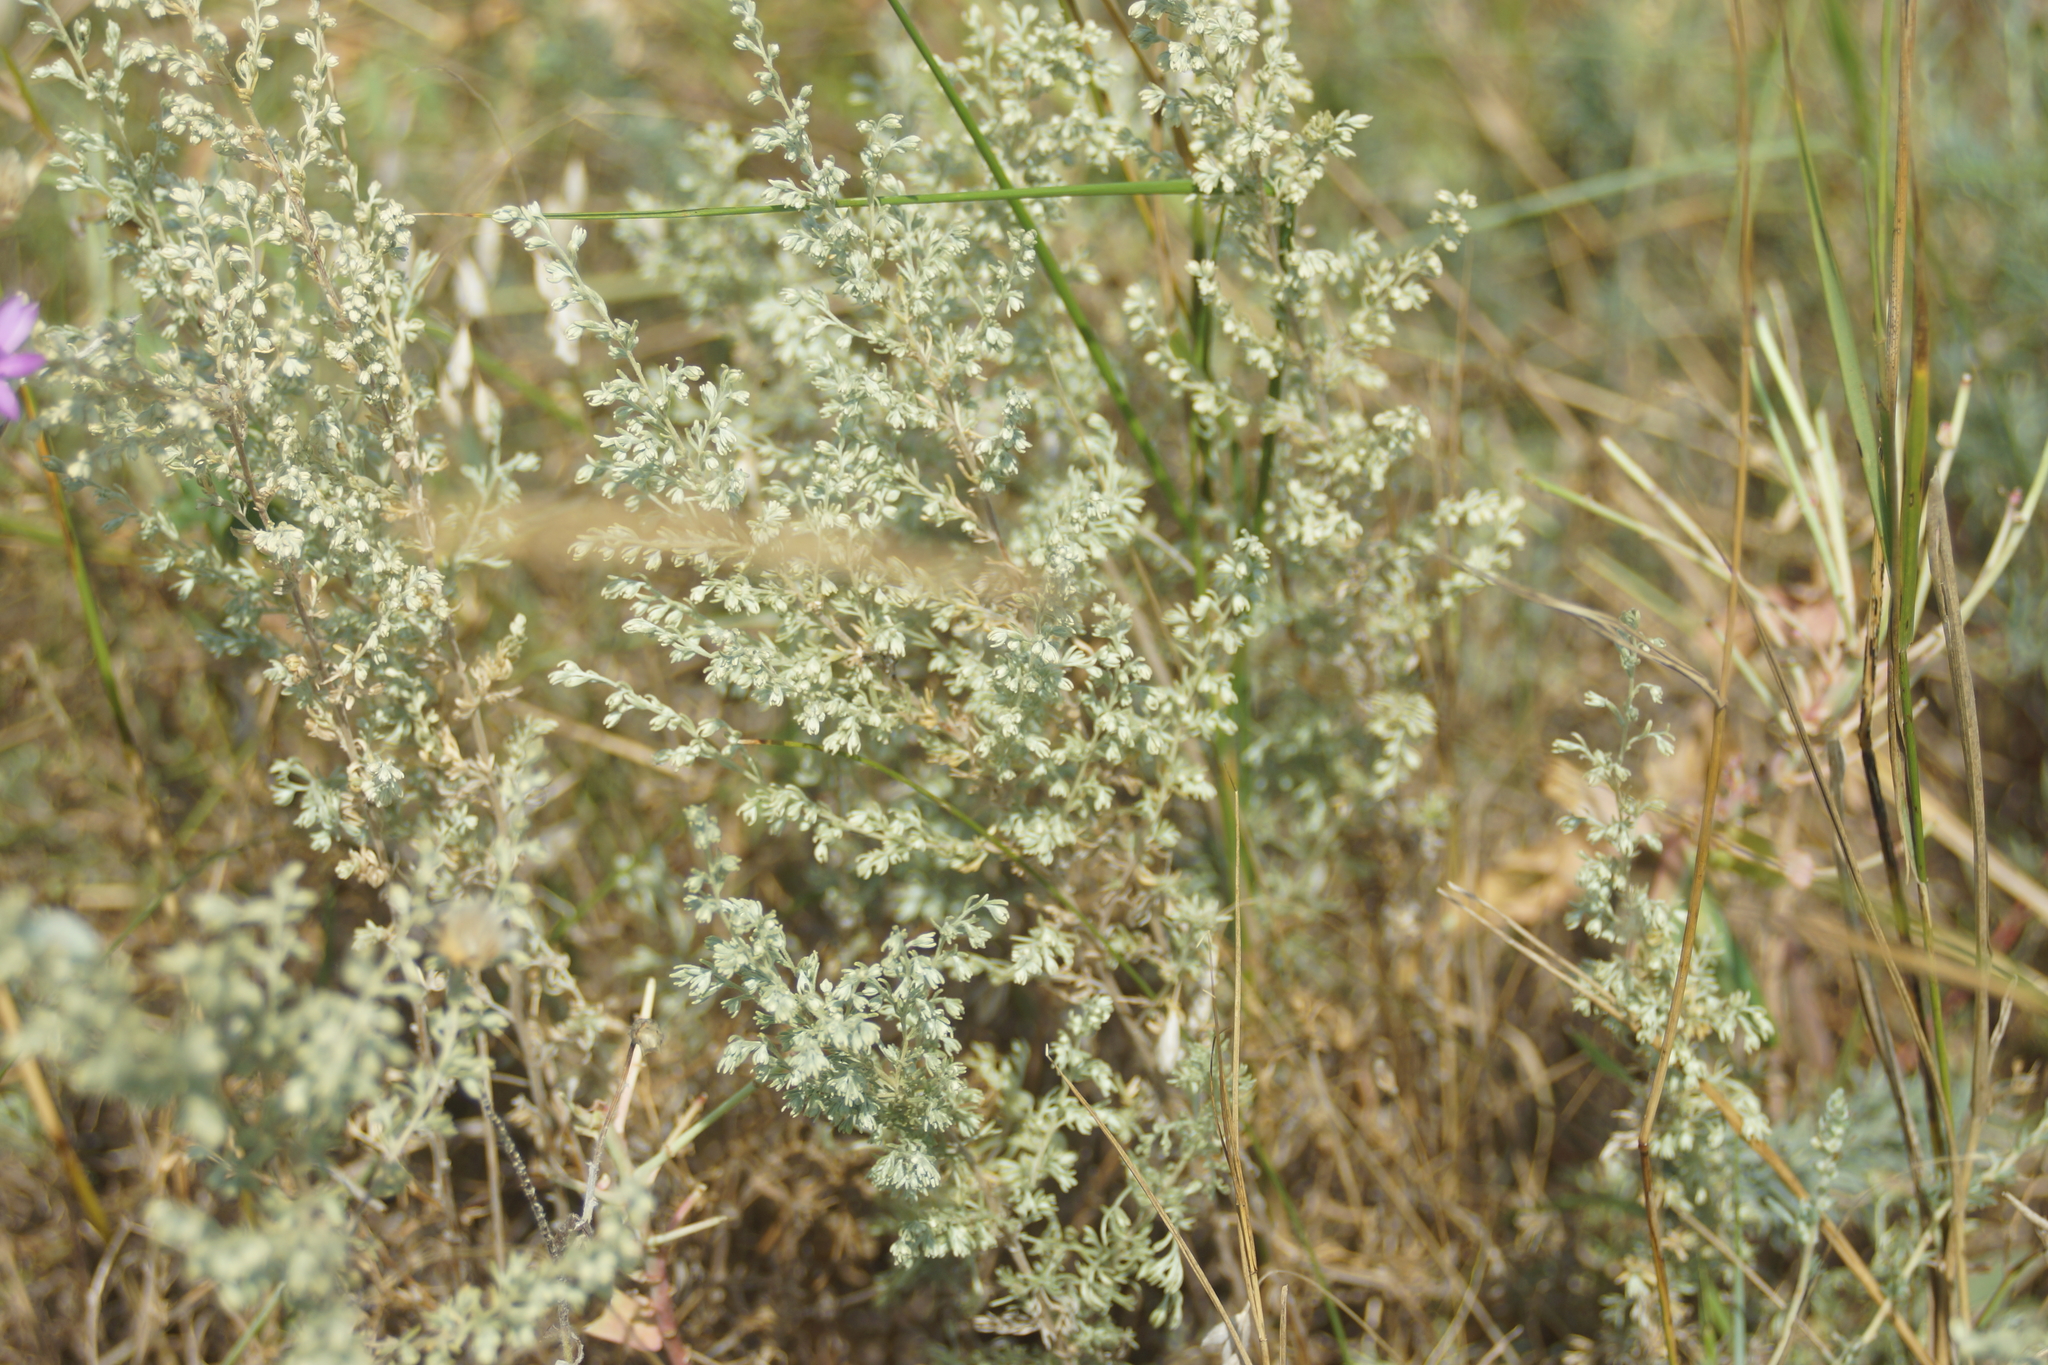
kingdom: Plantae
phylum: Tracheophyta
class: Magnoliopsida
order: Asterales
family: Asteraceae
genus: Artemisia
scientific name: Artemisia austriaca
